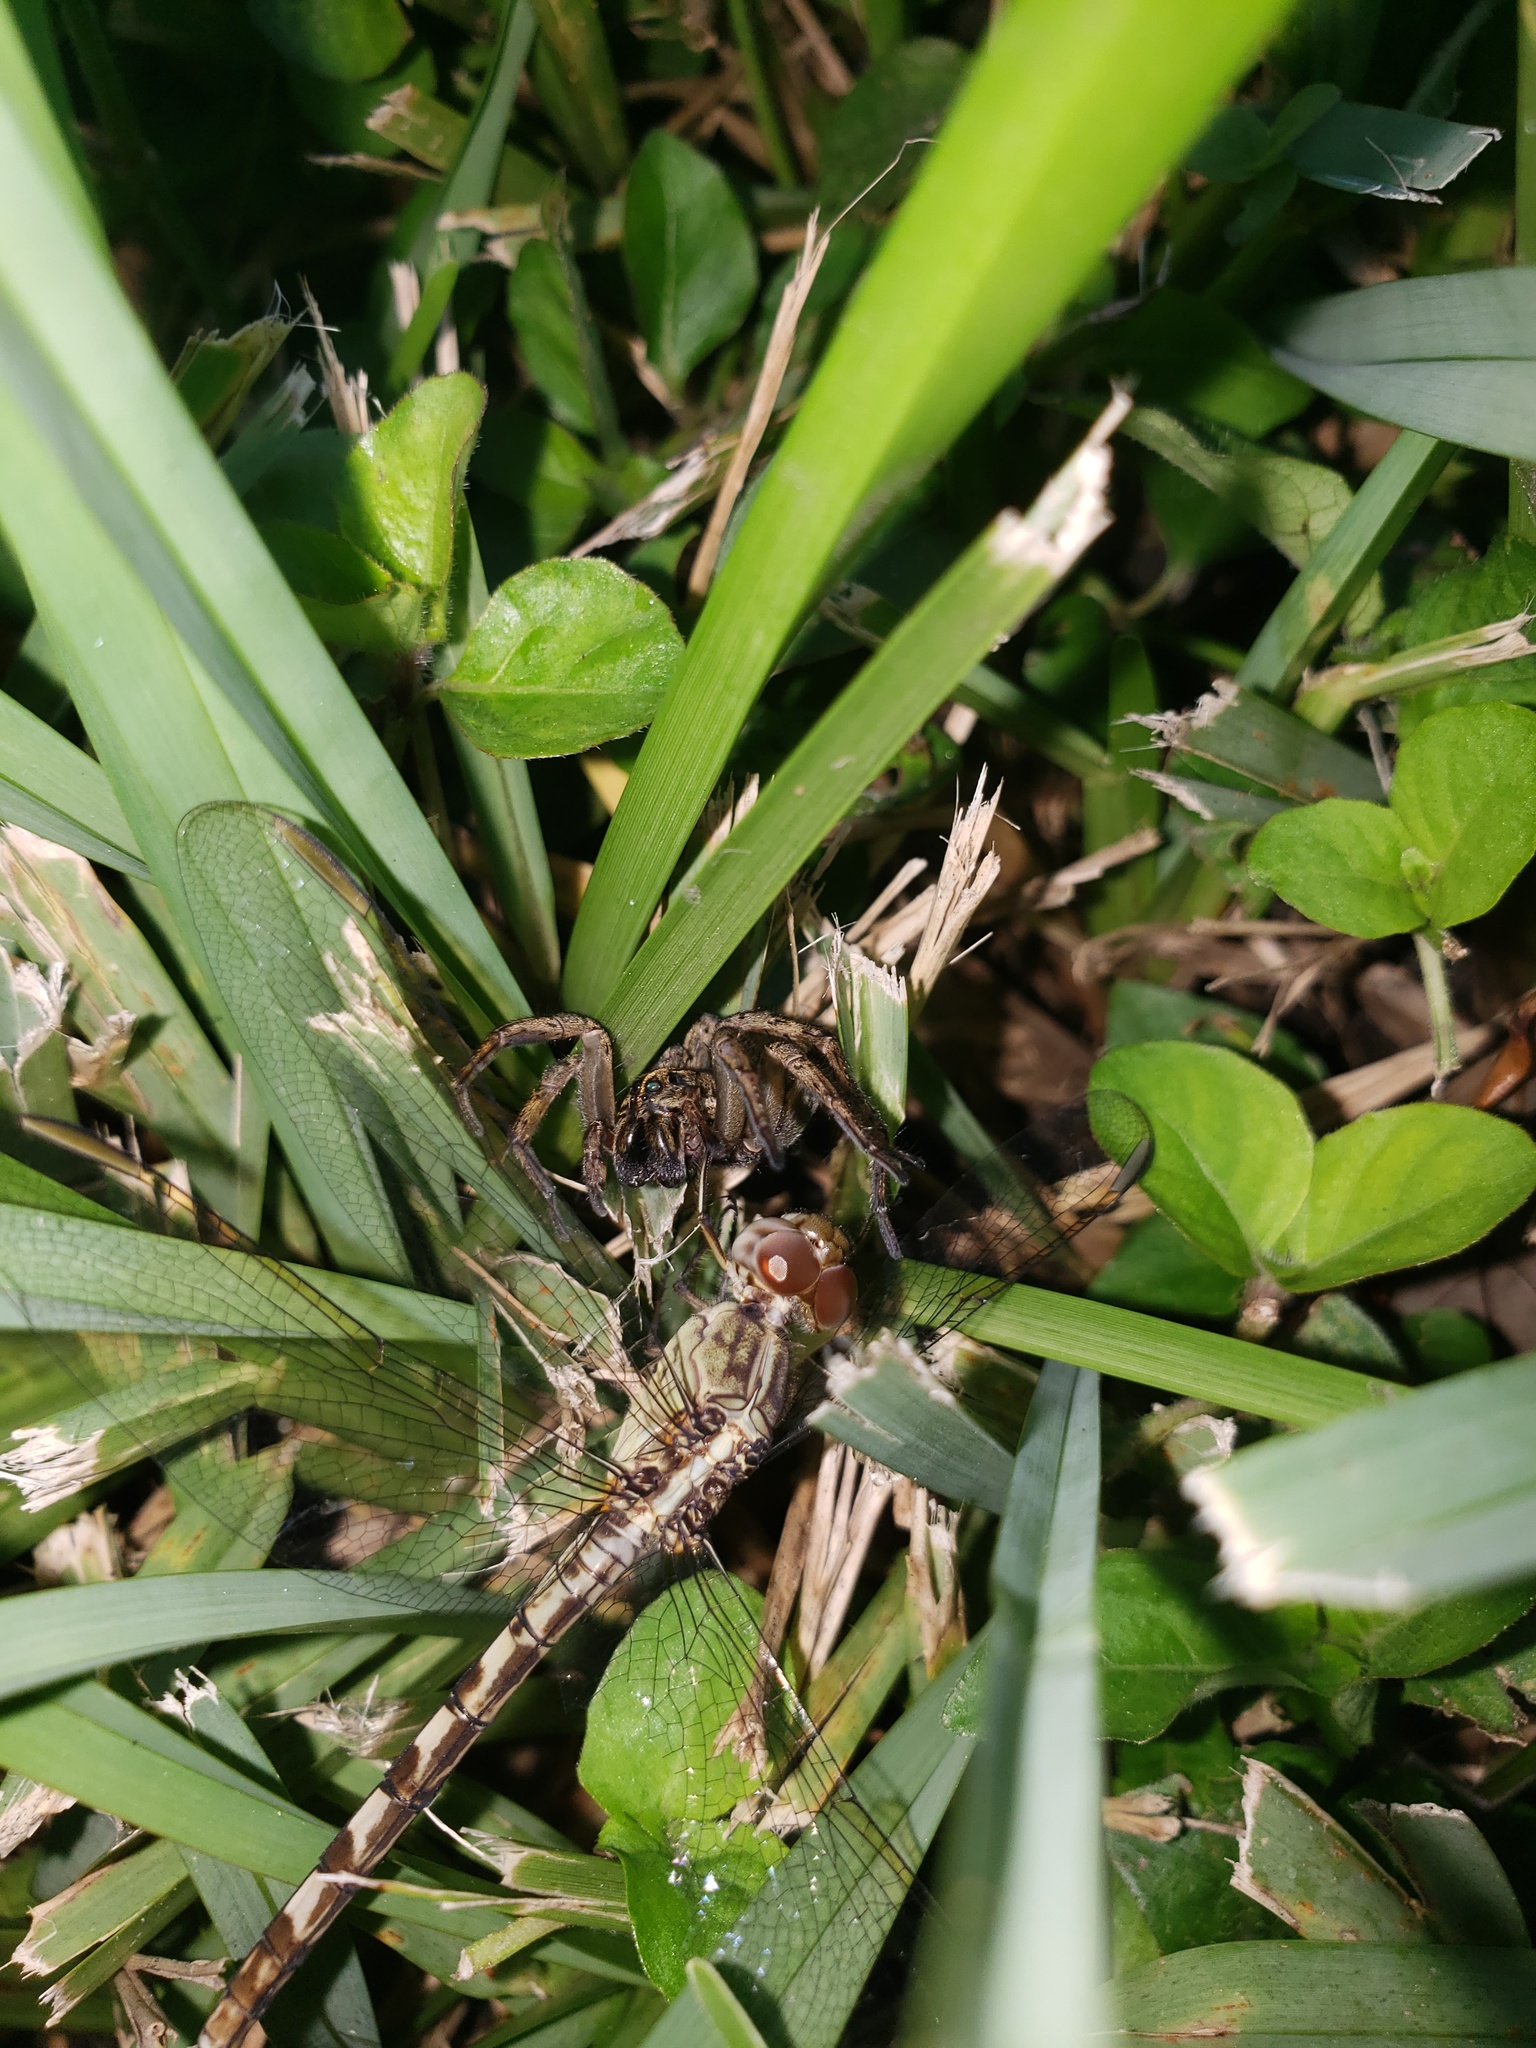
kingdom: Animalia
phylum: Arthropoda
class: Insecta
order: Odonata
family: Libellulidae
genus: Erythrodiplax
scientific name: Erythrodiplax umbrata
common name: Band-winged dragonlet
